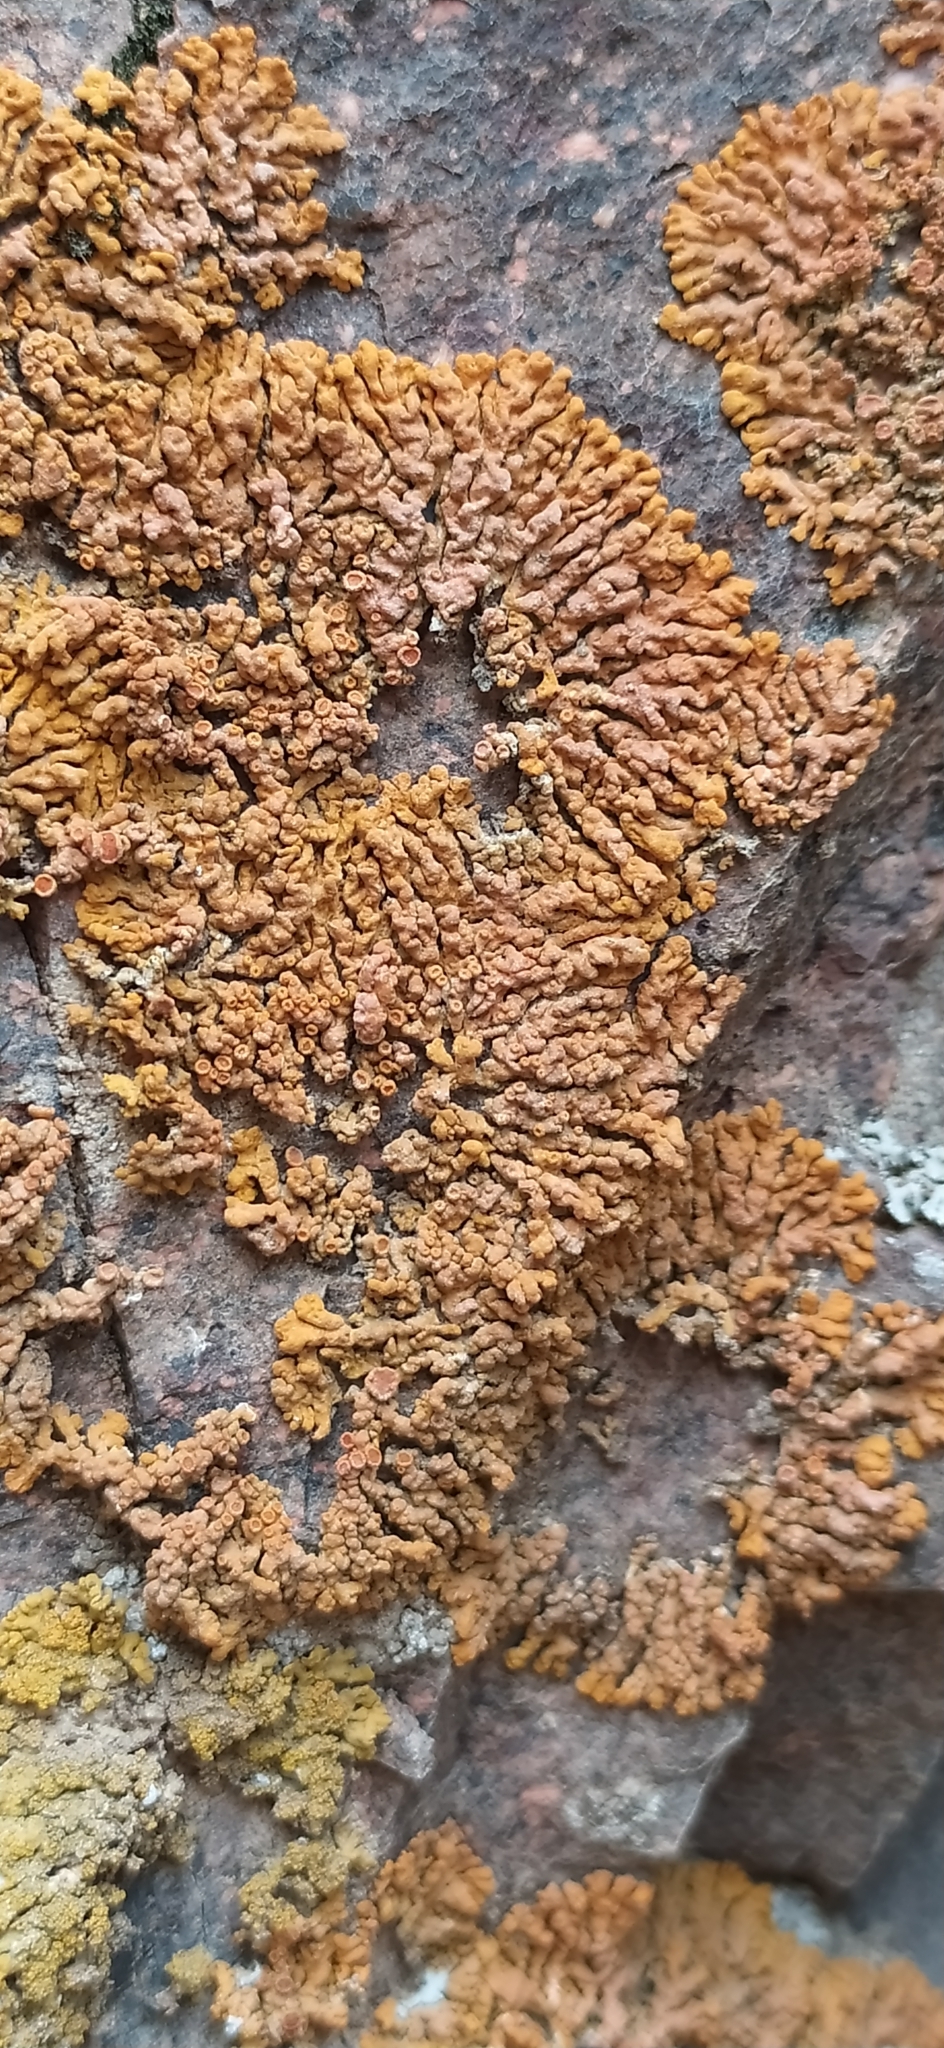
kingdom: Fungi
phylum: Ascomycota
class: Lecanoromycetes
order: Teloschistales
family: Teloschistaceae
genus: Xanthoria
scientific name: Xanthoria elegans
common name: Elegant sunburst lichen
